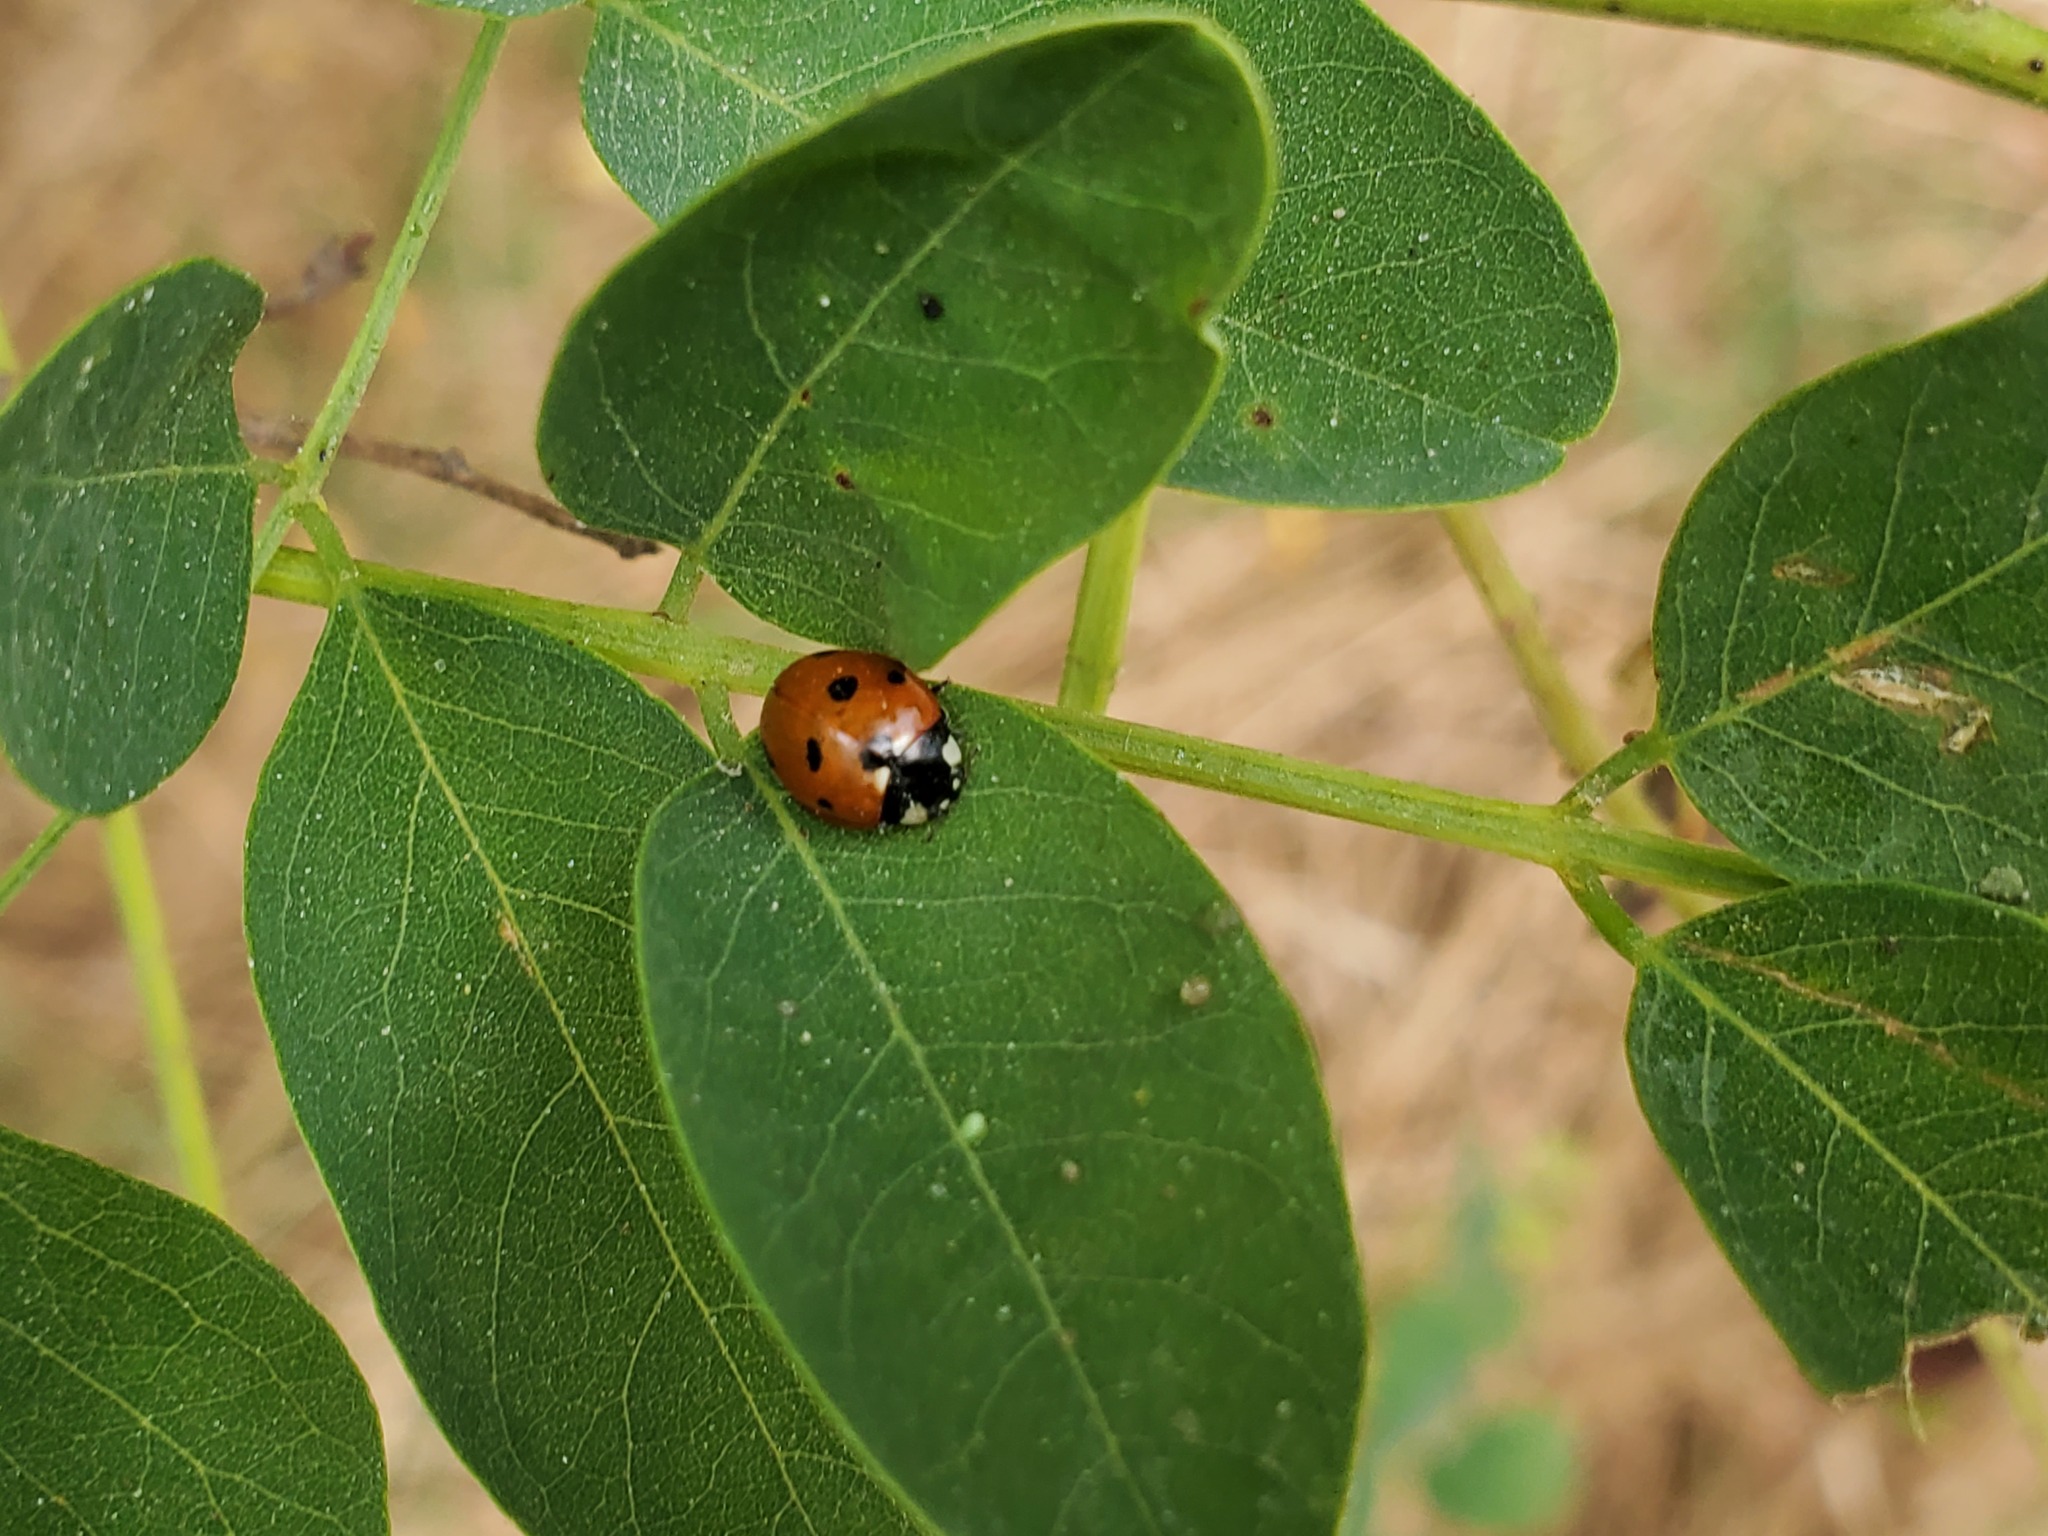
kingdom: Animalia
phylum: Arthropoda
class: Insecta
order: Coleoptera
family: Coccinellidae
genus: Coccinella
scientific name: Coccinella septempunctata
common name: Sevenspotted lady beetle
